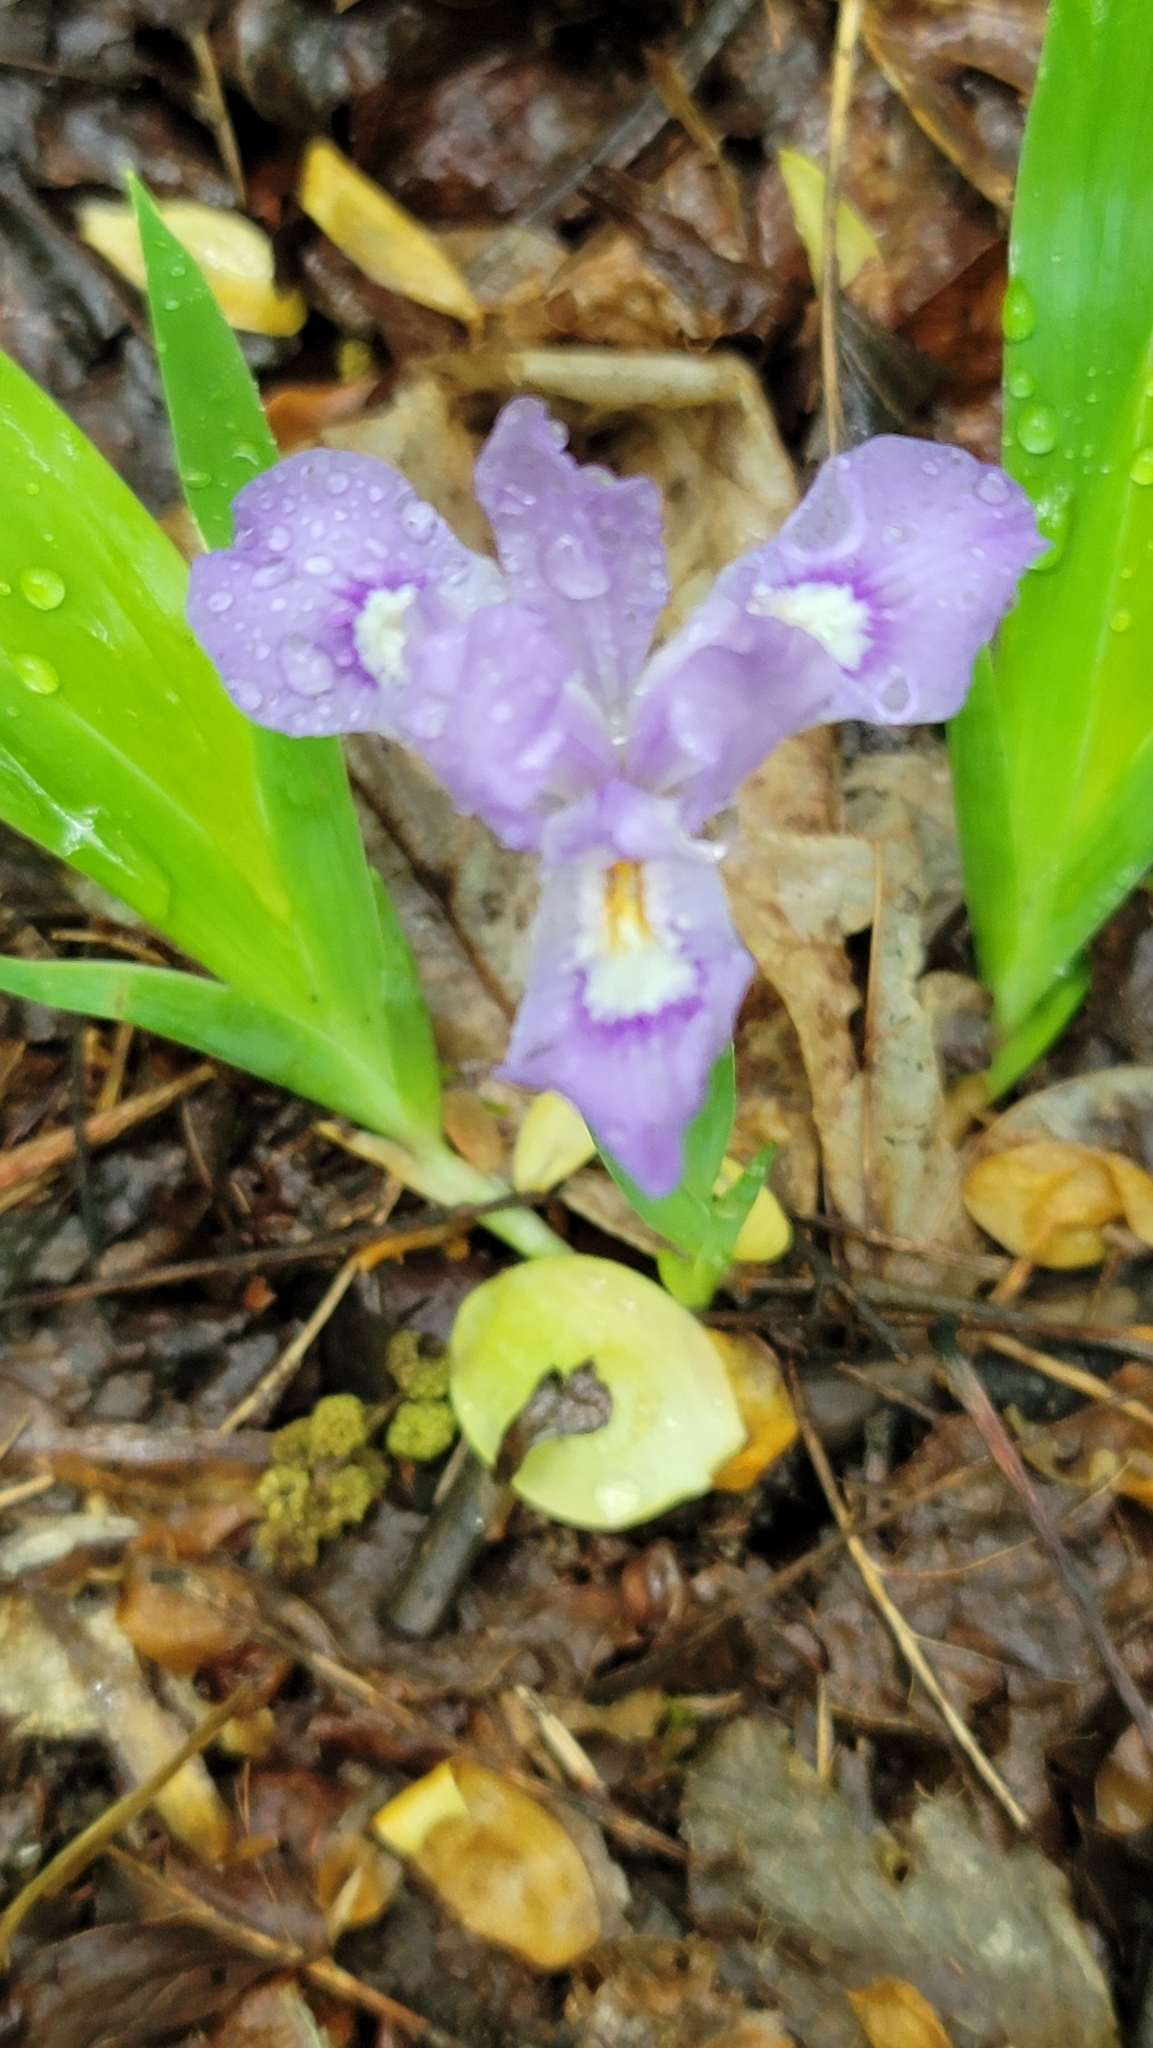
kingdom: Plantae
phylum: Tracheophyta
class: Liliopsida
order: Asparagales
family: Iridaceae
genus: Iris
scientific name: Iris cristata
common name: Crested iris
